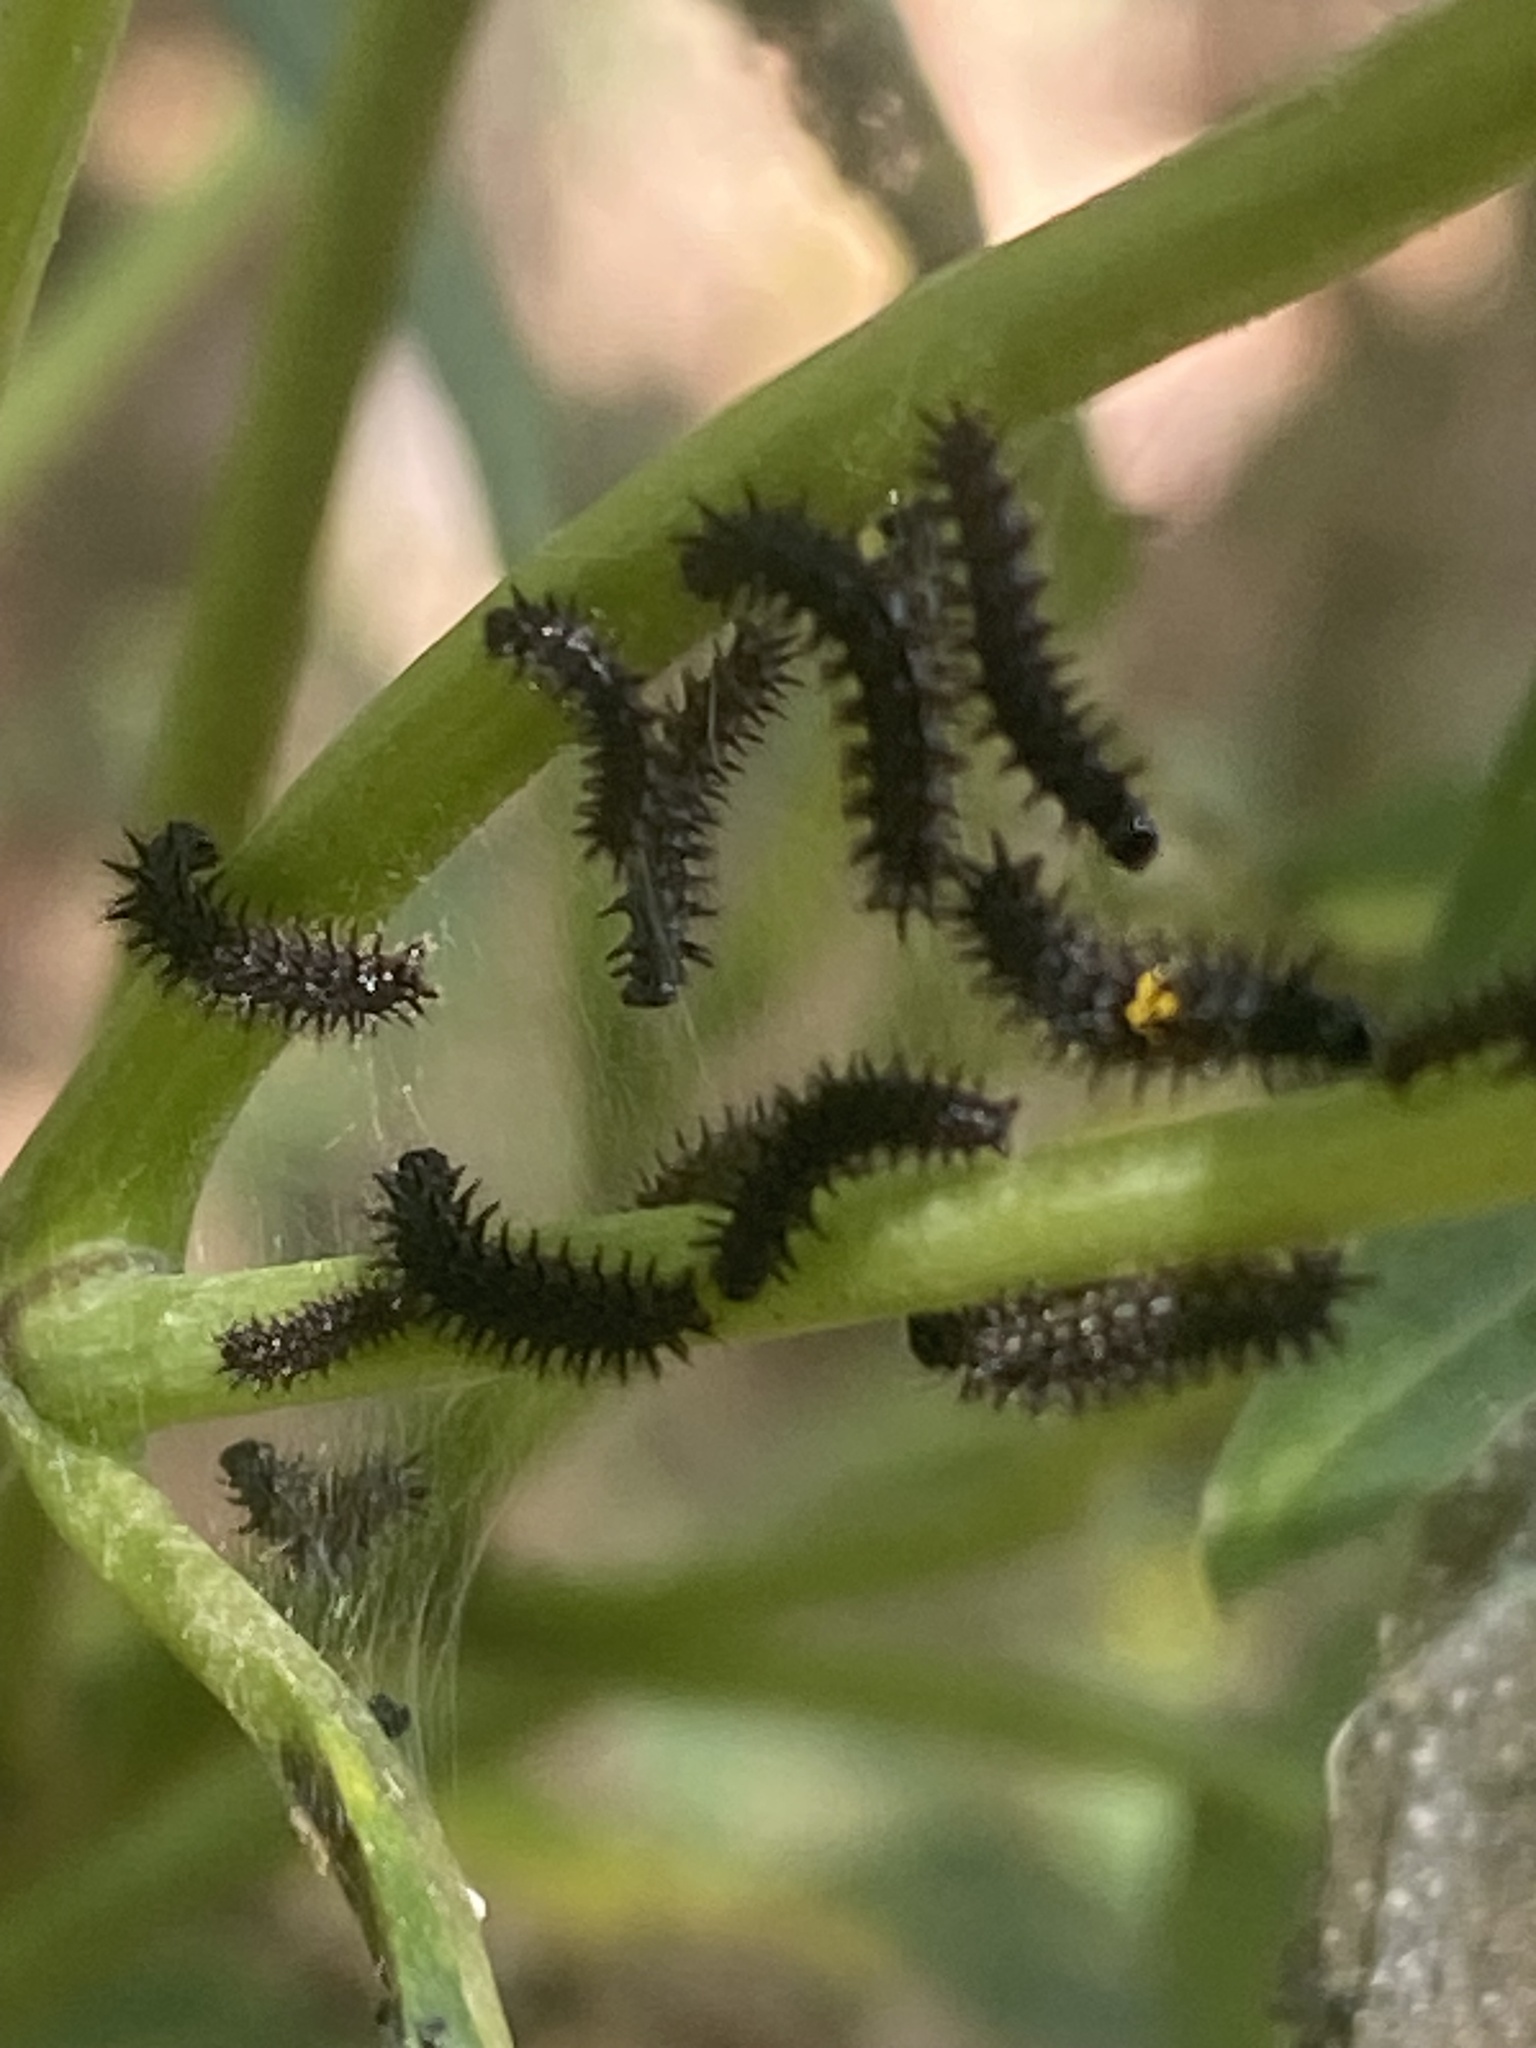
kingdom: Animalia
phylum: Arthropoda
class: Insecta
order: Lepidoptera
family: Nymphalidae
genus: Chlosyne
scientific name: Chlosyne nycteis
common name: Silvery checkerspot
